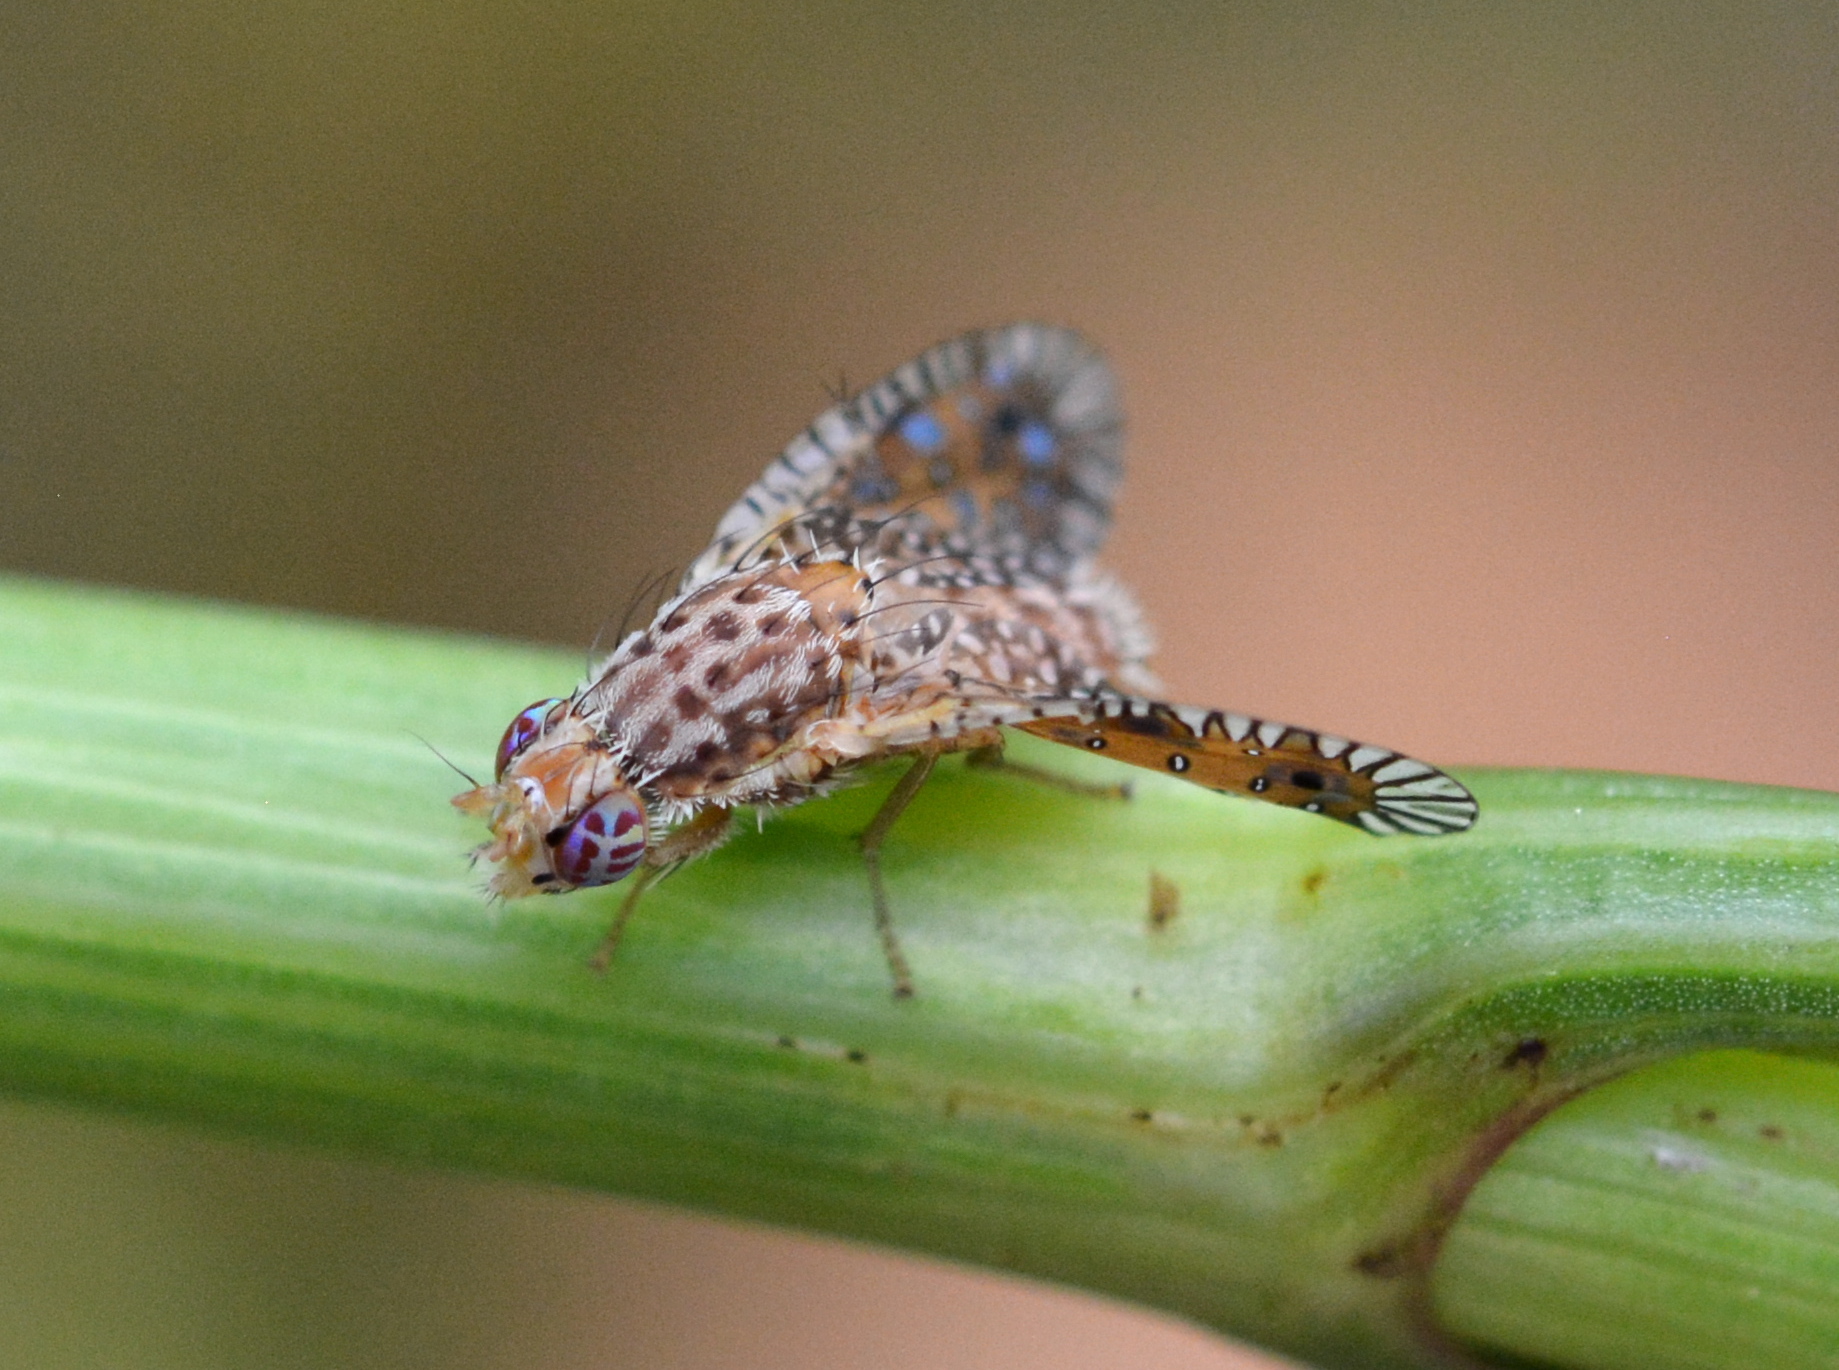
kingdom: Animalia
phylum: Arthropoda
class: Insecta
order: Diptera
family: Tephritidae
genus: Paracantha
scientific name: Paracantha culta
